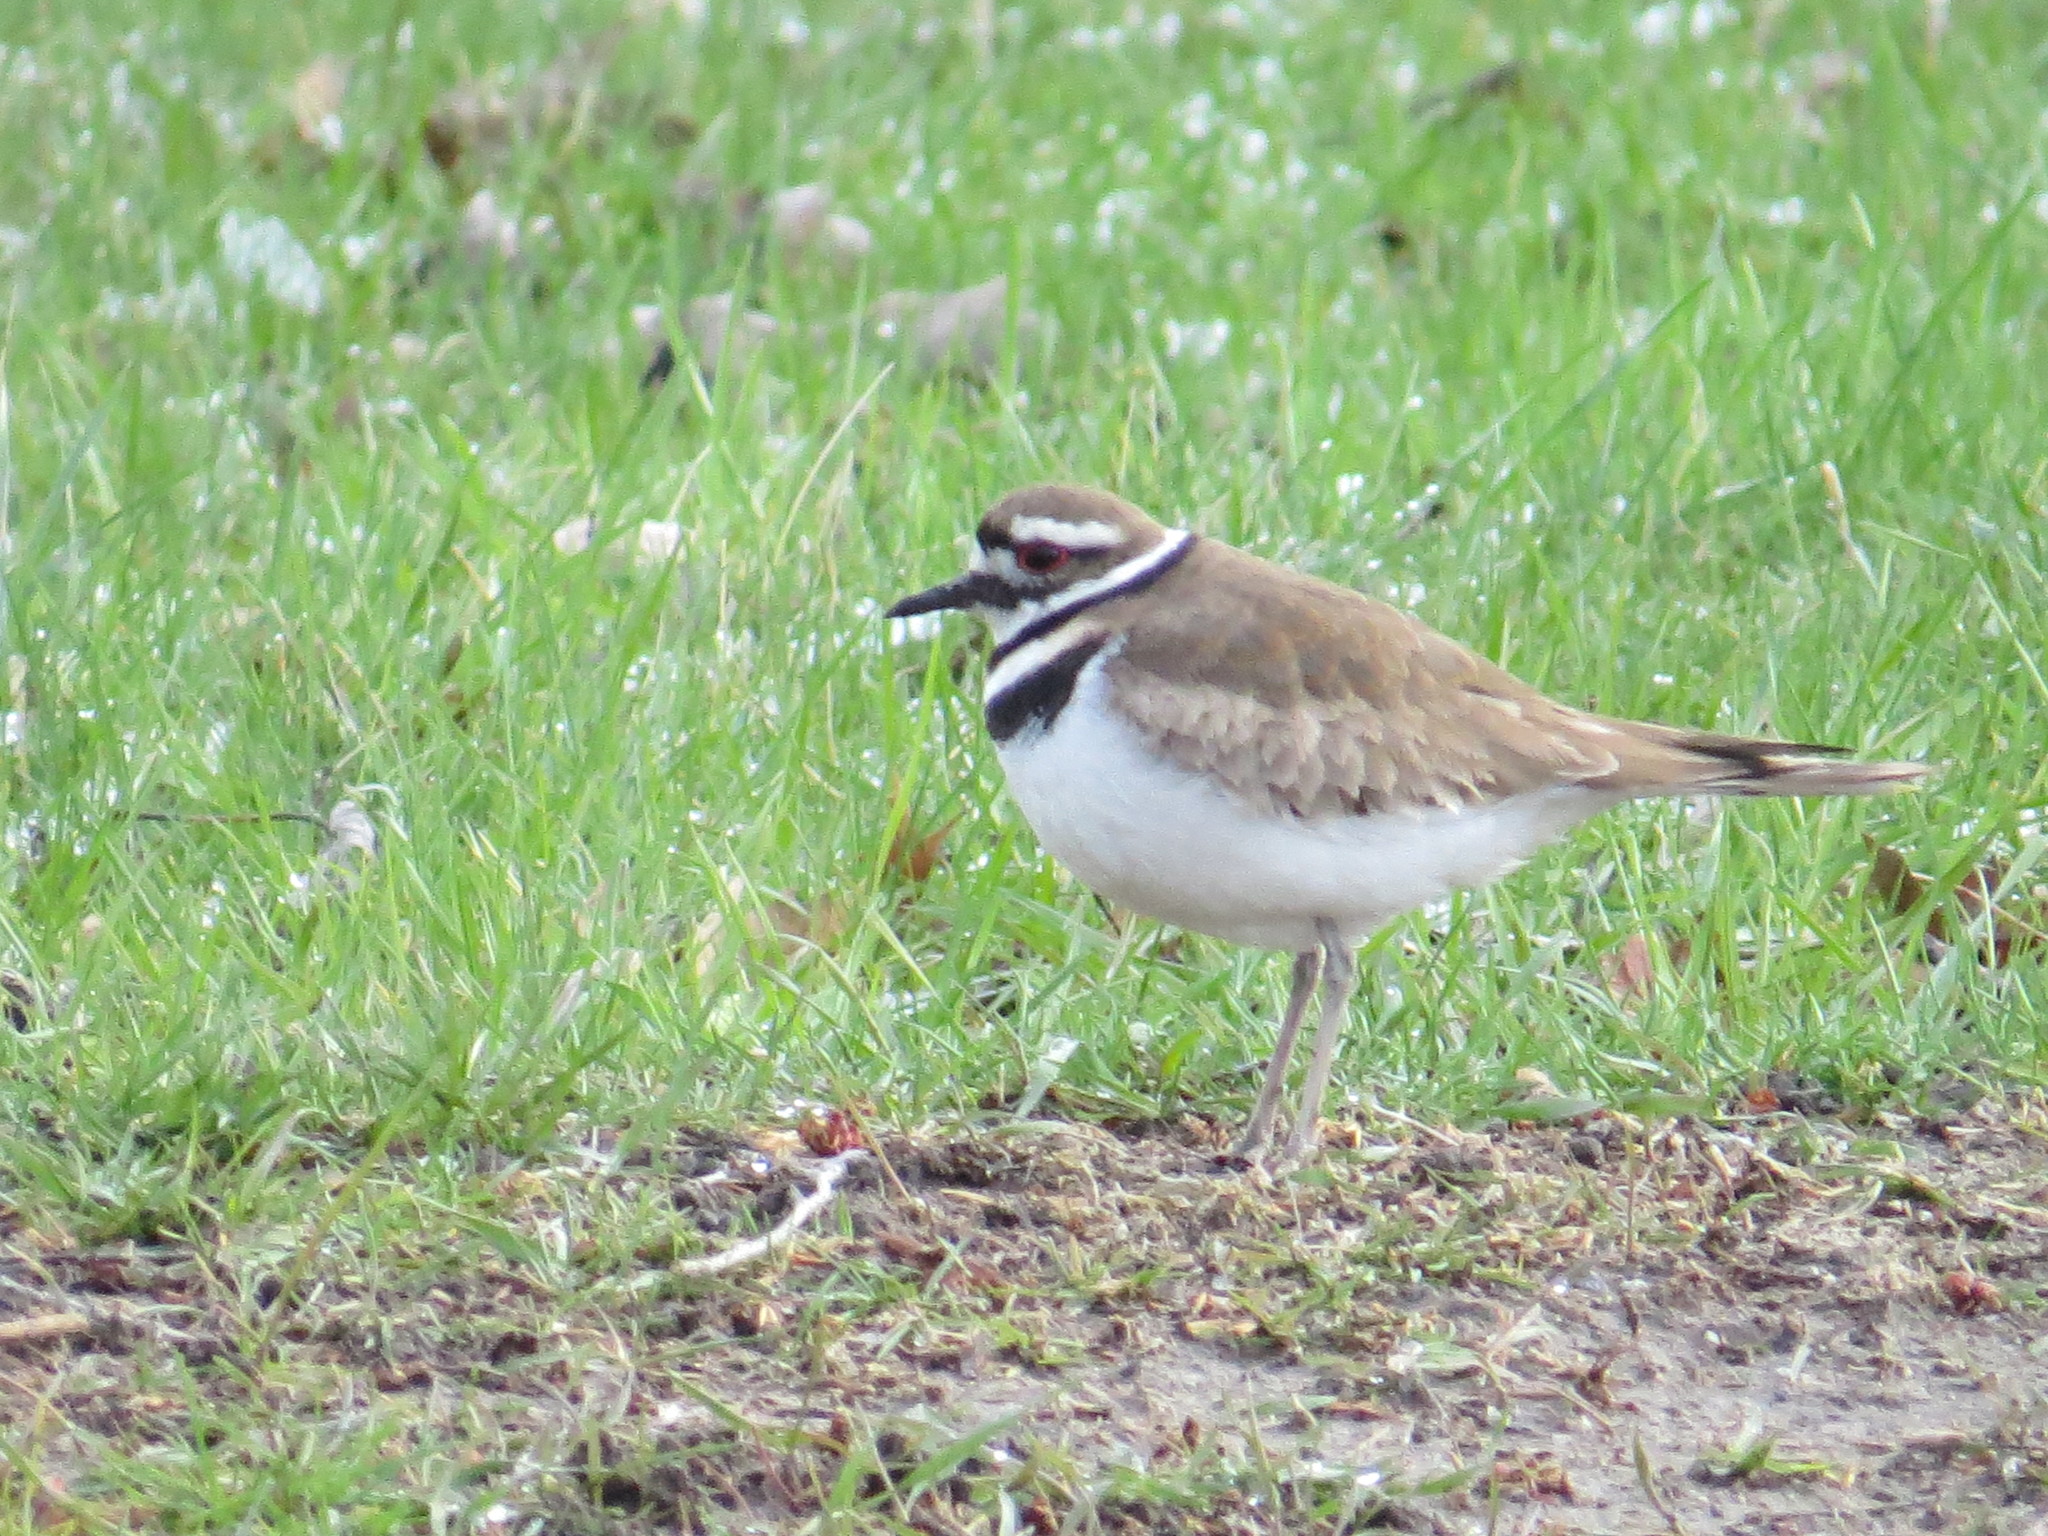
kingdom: Animalia
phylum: Chordata
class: Aves
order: Charadriiformes
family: Charadriidae
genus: Charadrius
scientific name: Charadrius vociferus
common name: Killdeer
